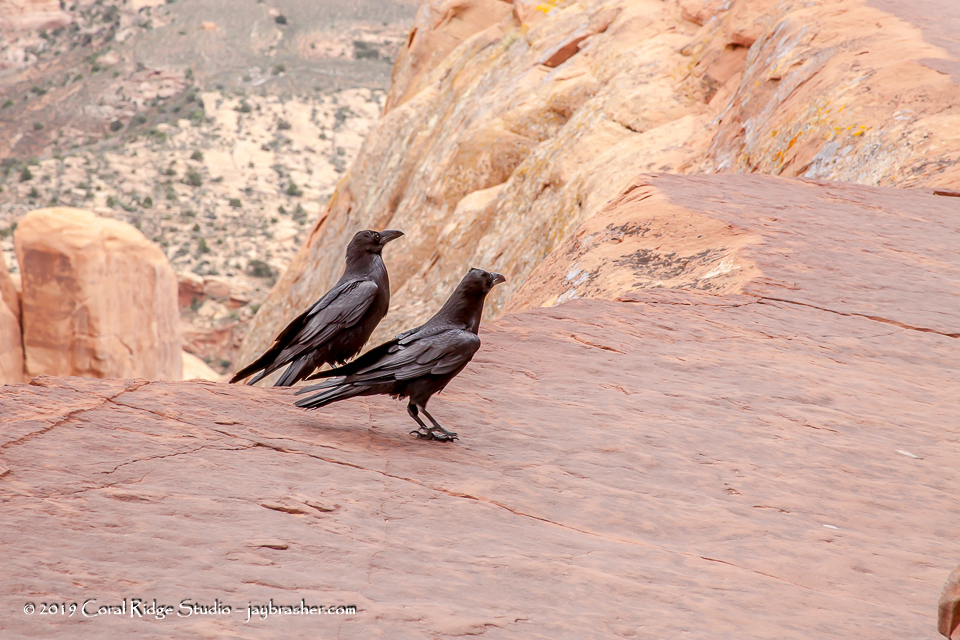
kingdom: Animalia
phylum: Chordata
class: Aves
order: Passeriformes
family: Corvidae
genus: Corvus
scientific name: Corvus corax
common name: Common raven
